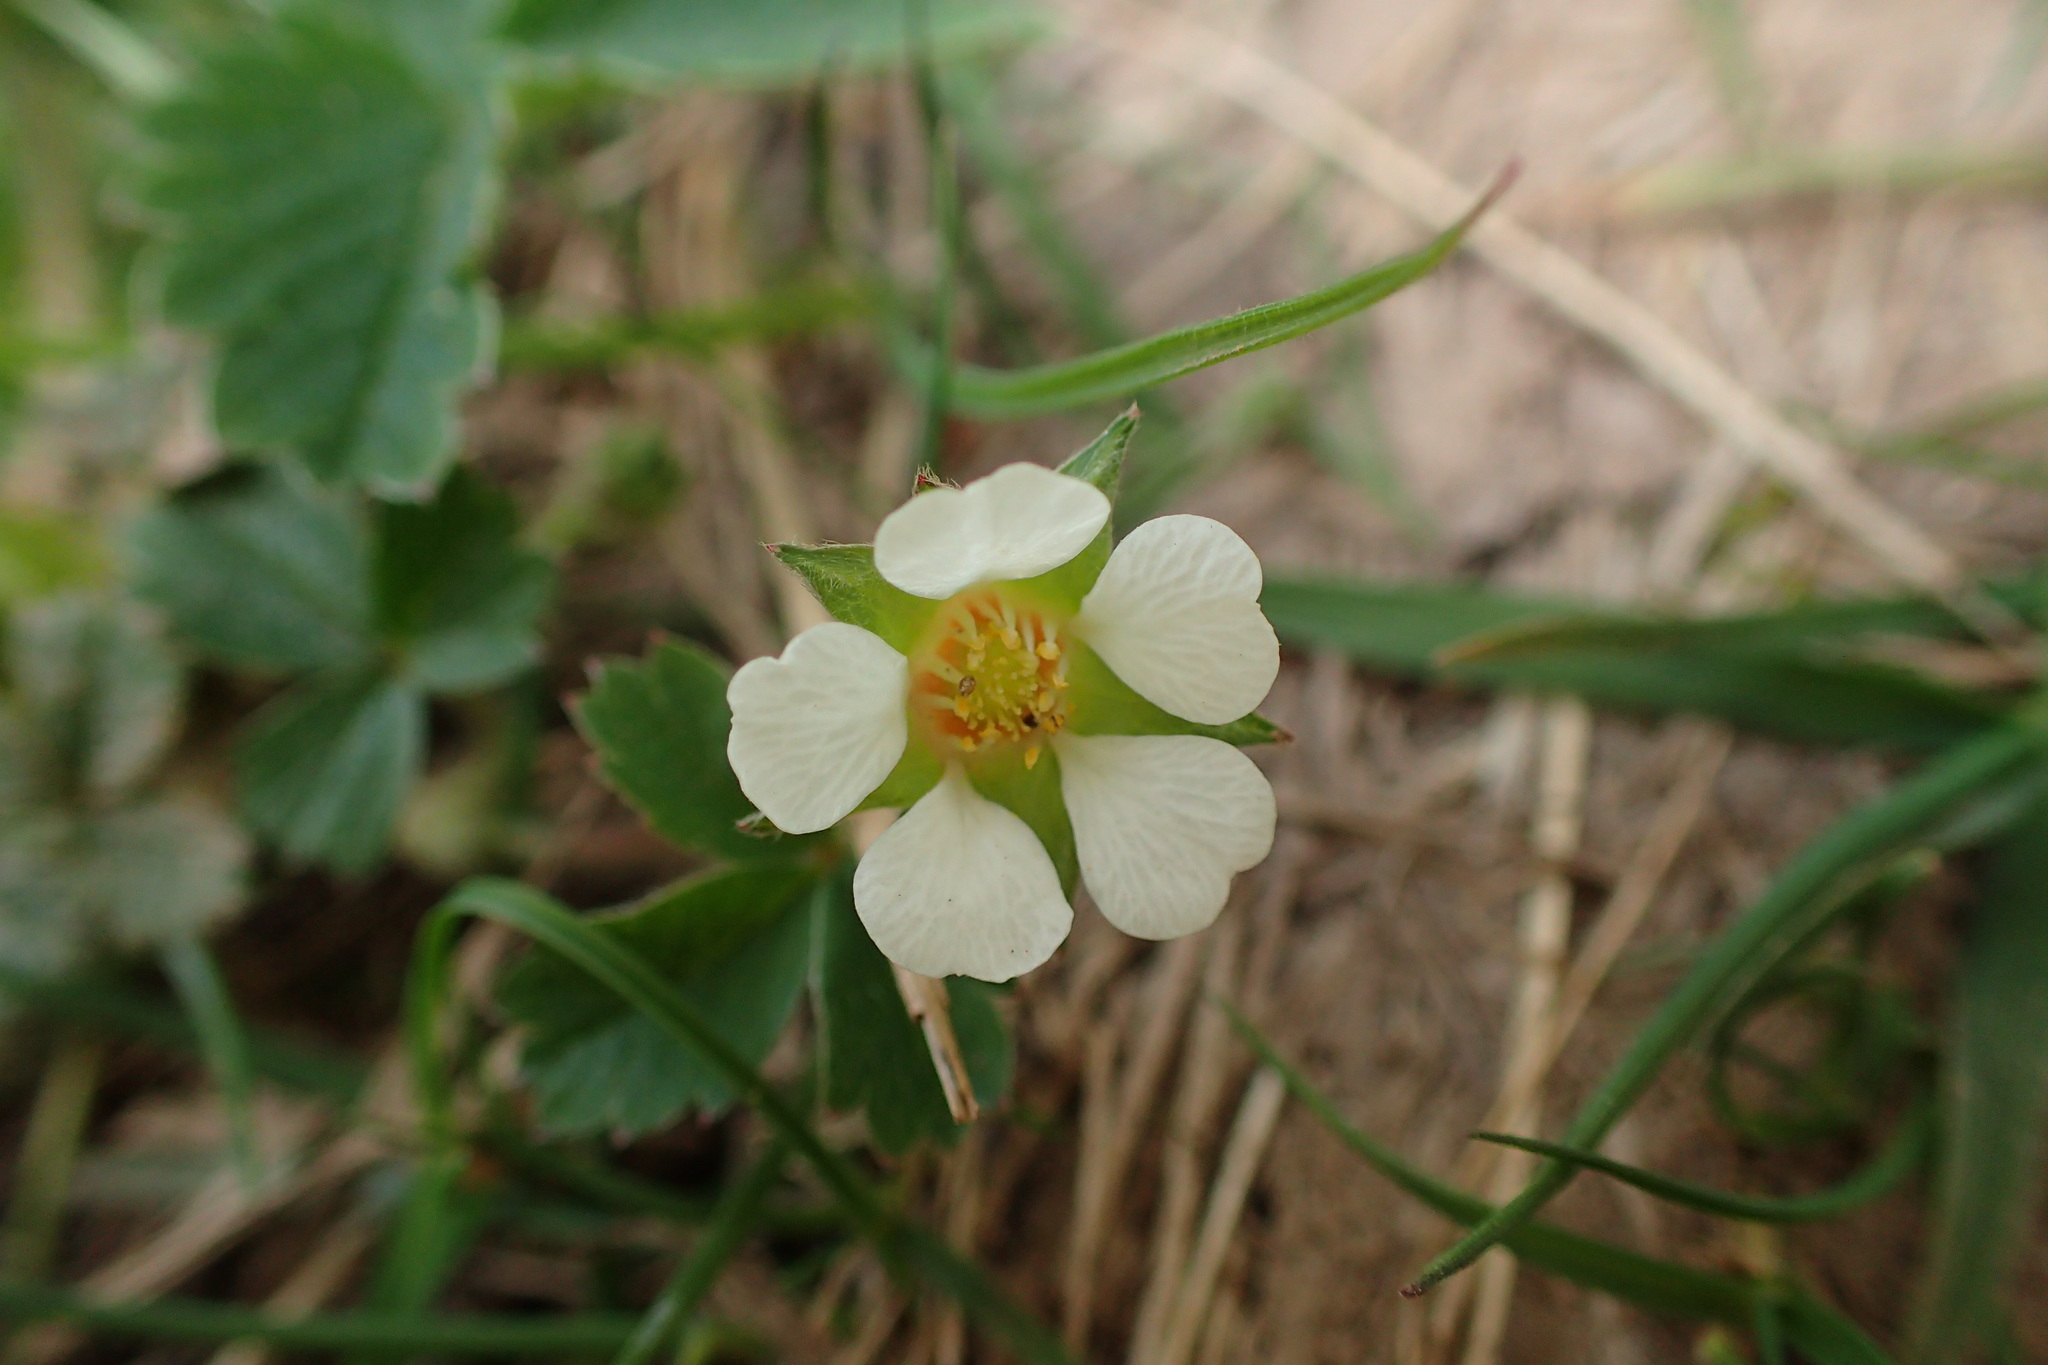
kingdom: Plantae
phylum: Tracheophyta
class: Magnoliopsida
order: Rosales
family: Rosaceae
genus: Potentilla
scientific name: Potentilla sterilis
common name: Barren strawberry
